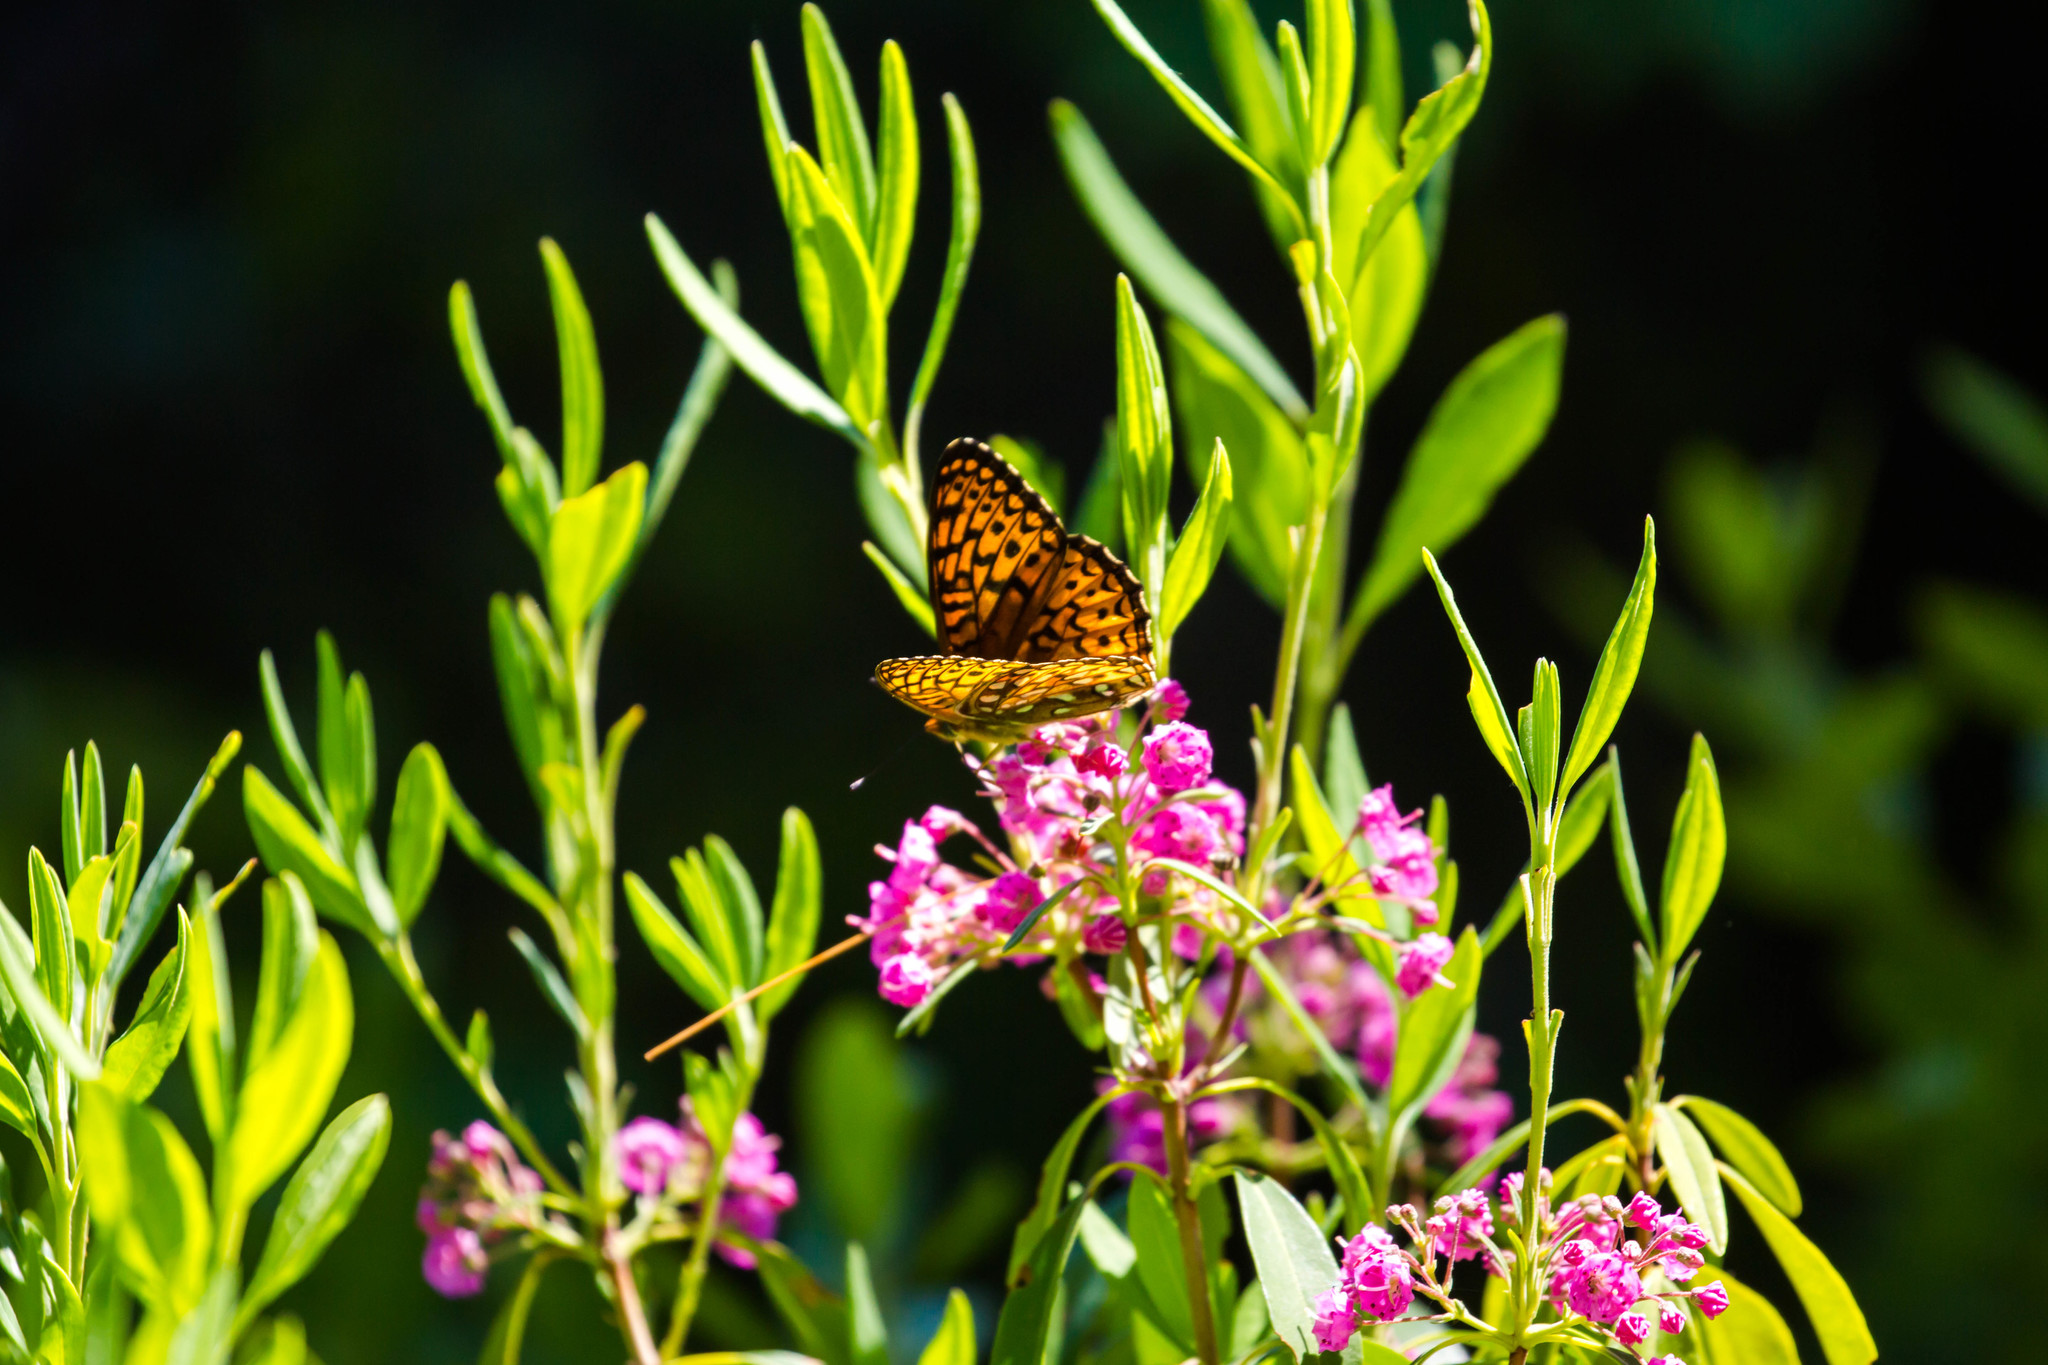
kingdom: Animalia
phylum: Arthropoda
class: Insecta
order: Lepidoptera
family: Nymphalidae
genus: Speyeria
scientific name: Speyeria atlantis
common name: Atlantis fritillary
